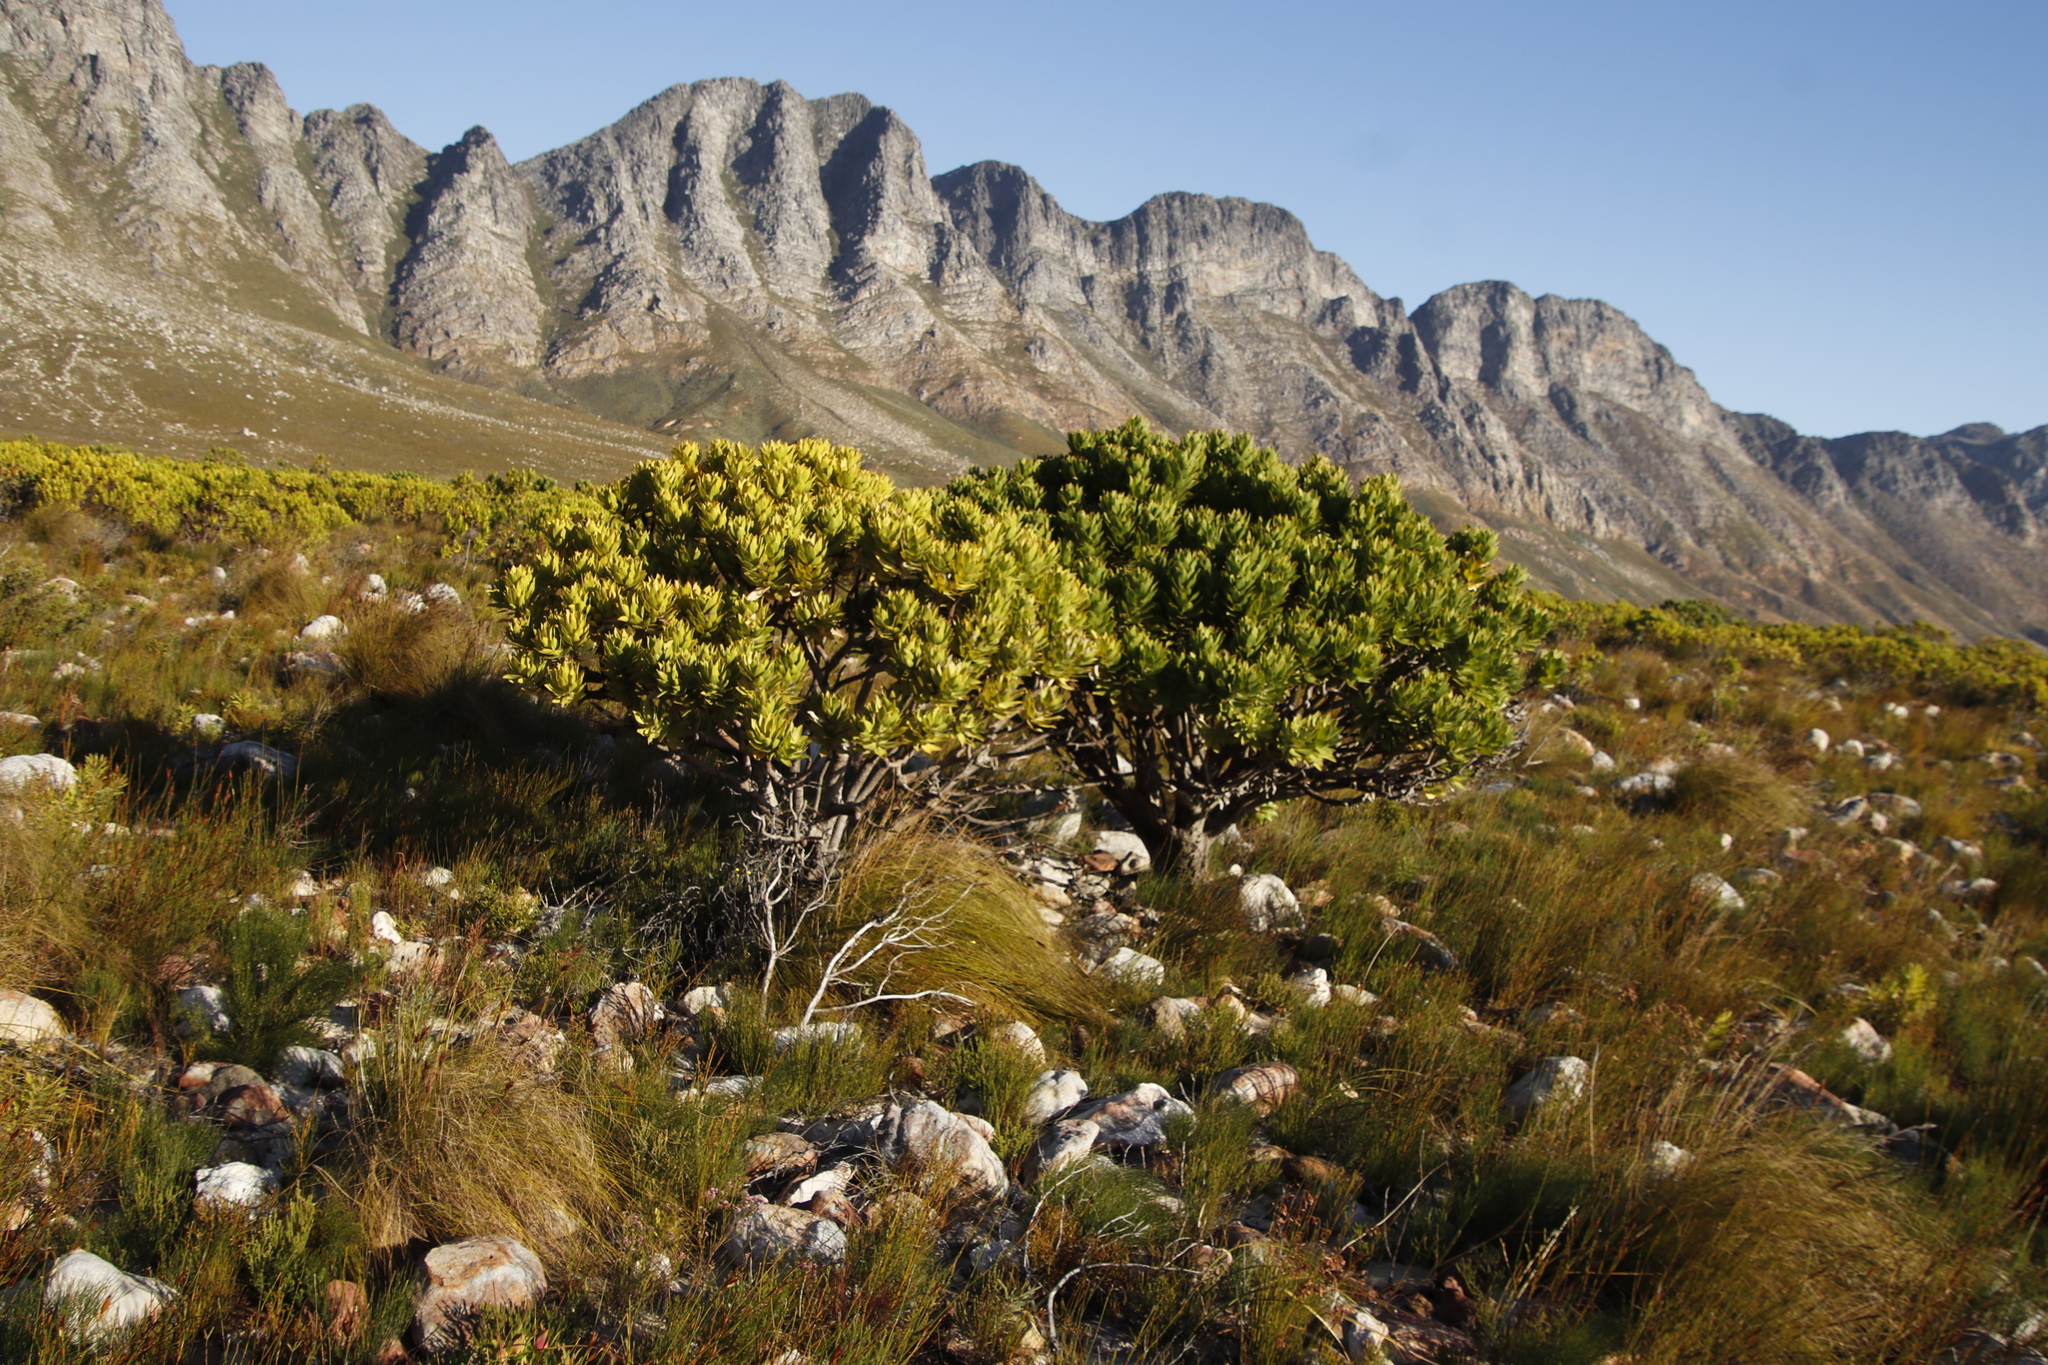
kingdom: Plantae
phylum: Tracheophyta
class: Magnoliopsida
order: Proteales
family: Proteaceae
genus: Leucospermum
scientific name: Leucospermum conocarpodendron
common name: Tree pincushion
